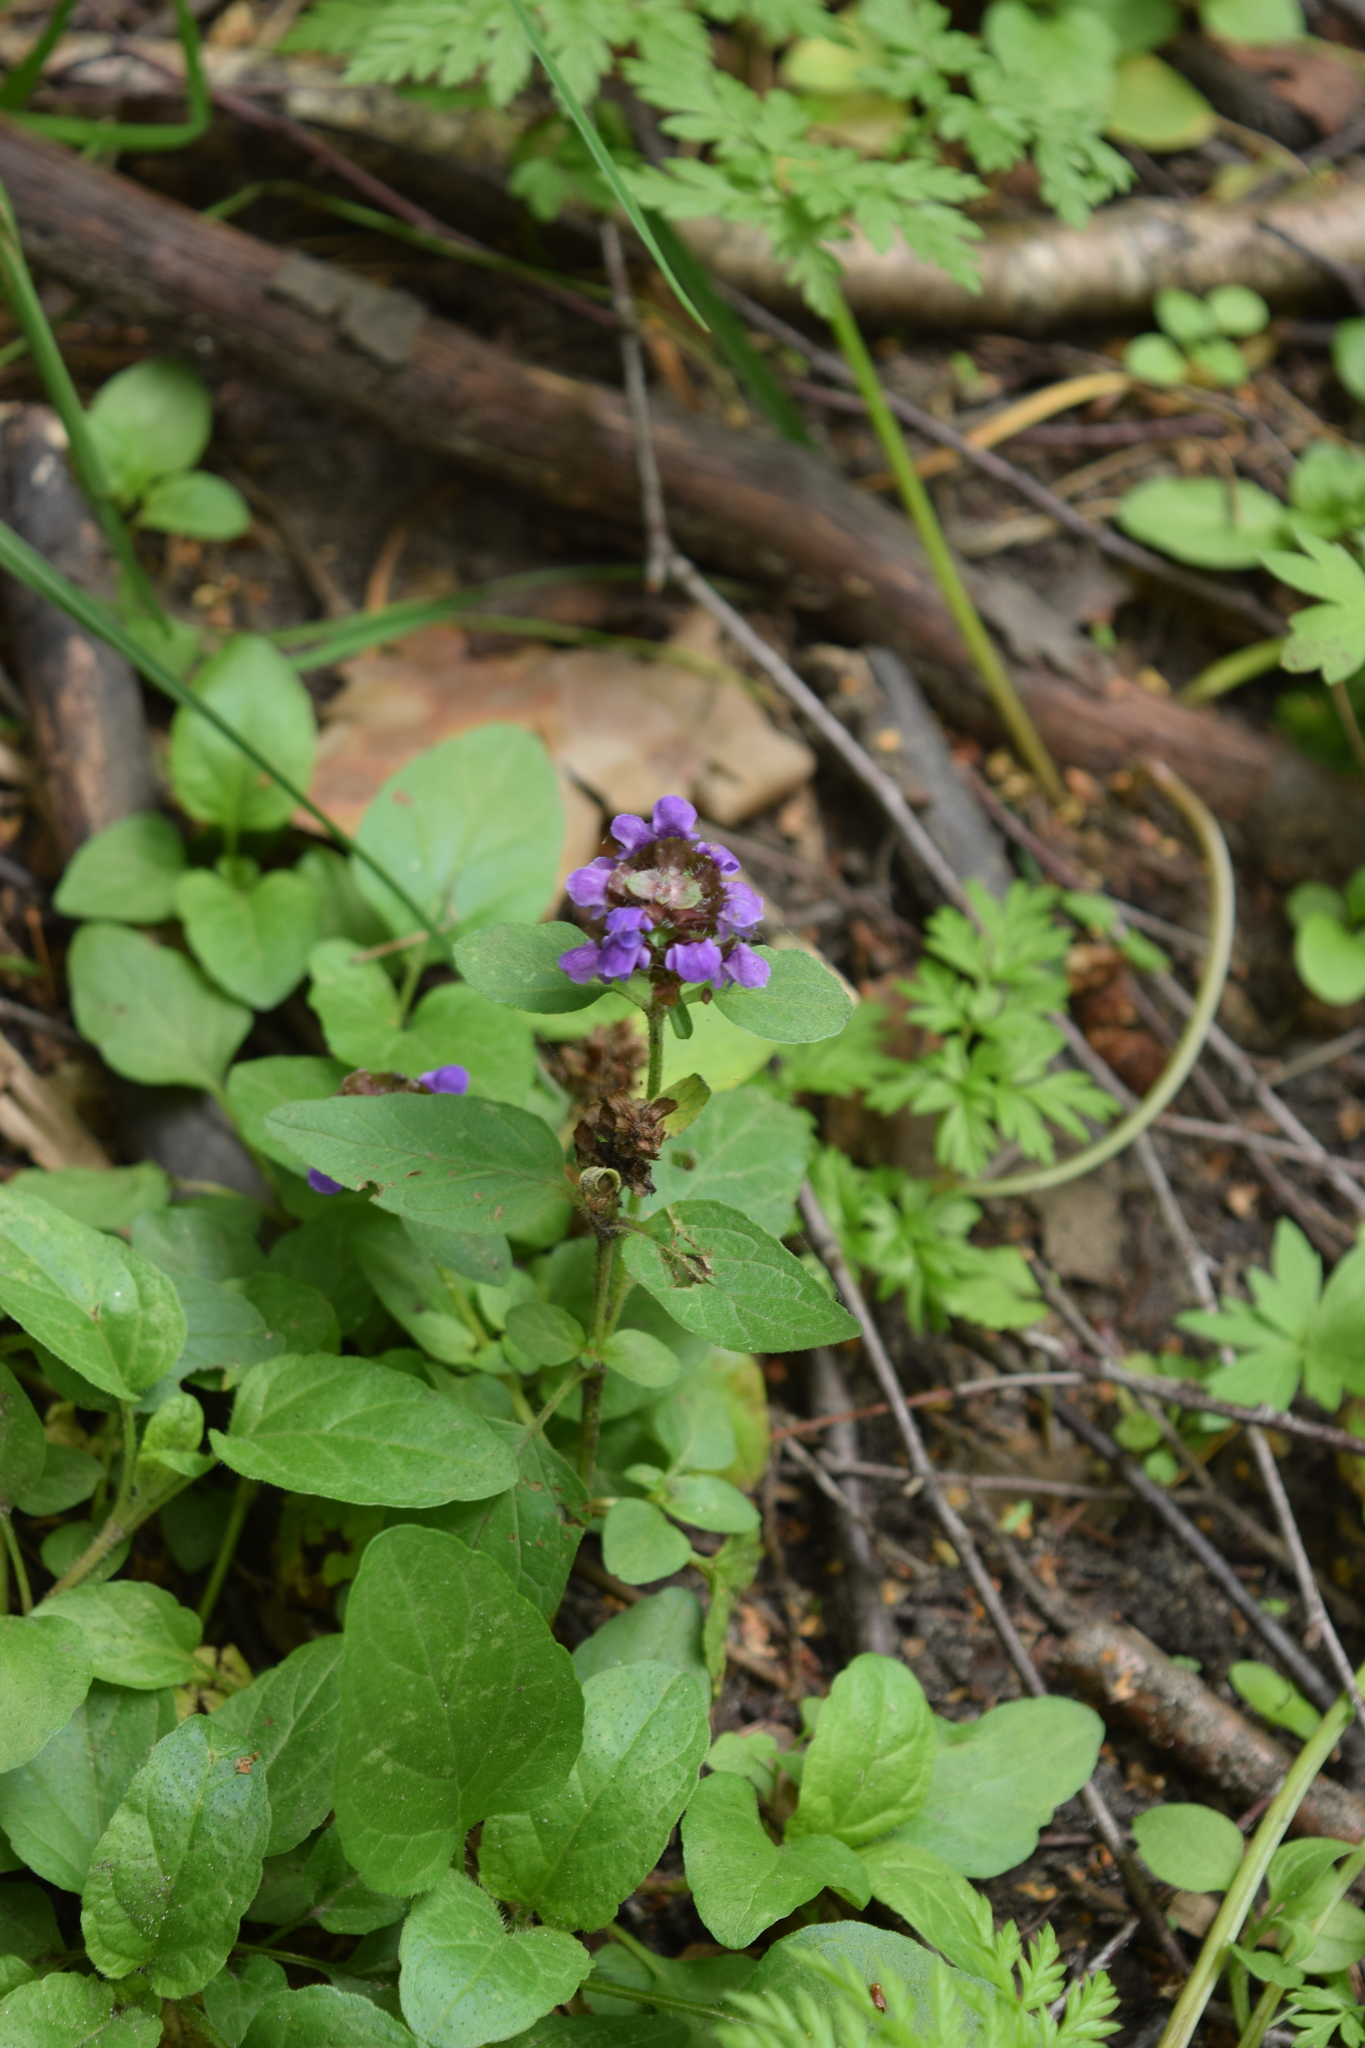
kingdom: Plantae
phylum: Tracheophyta
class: Magnoliopsida
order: Lamiales
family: Lamiaceae
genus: Prunella
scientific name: Prunella vulgaris
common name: Heal-all
